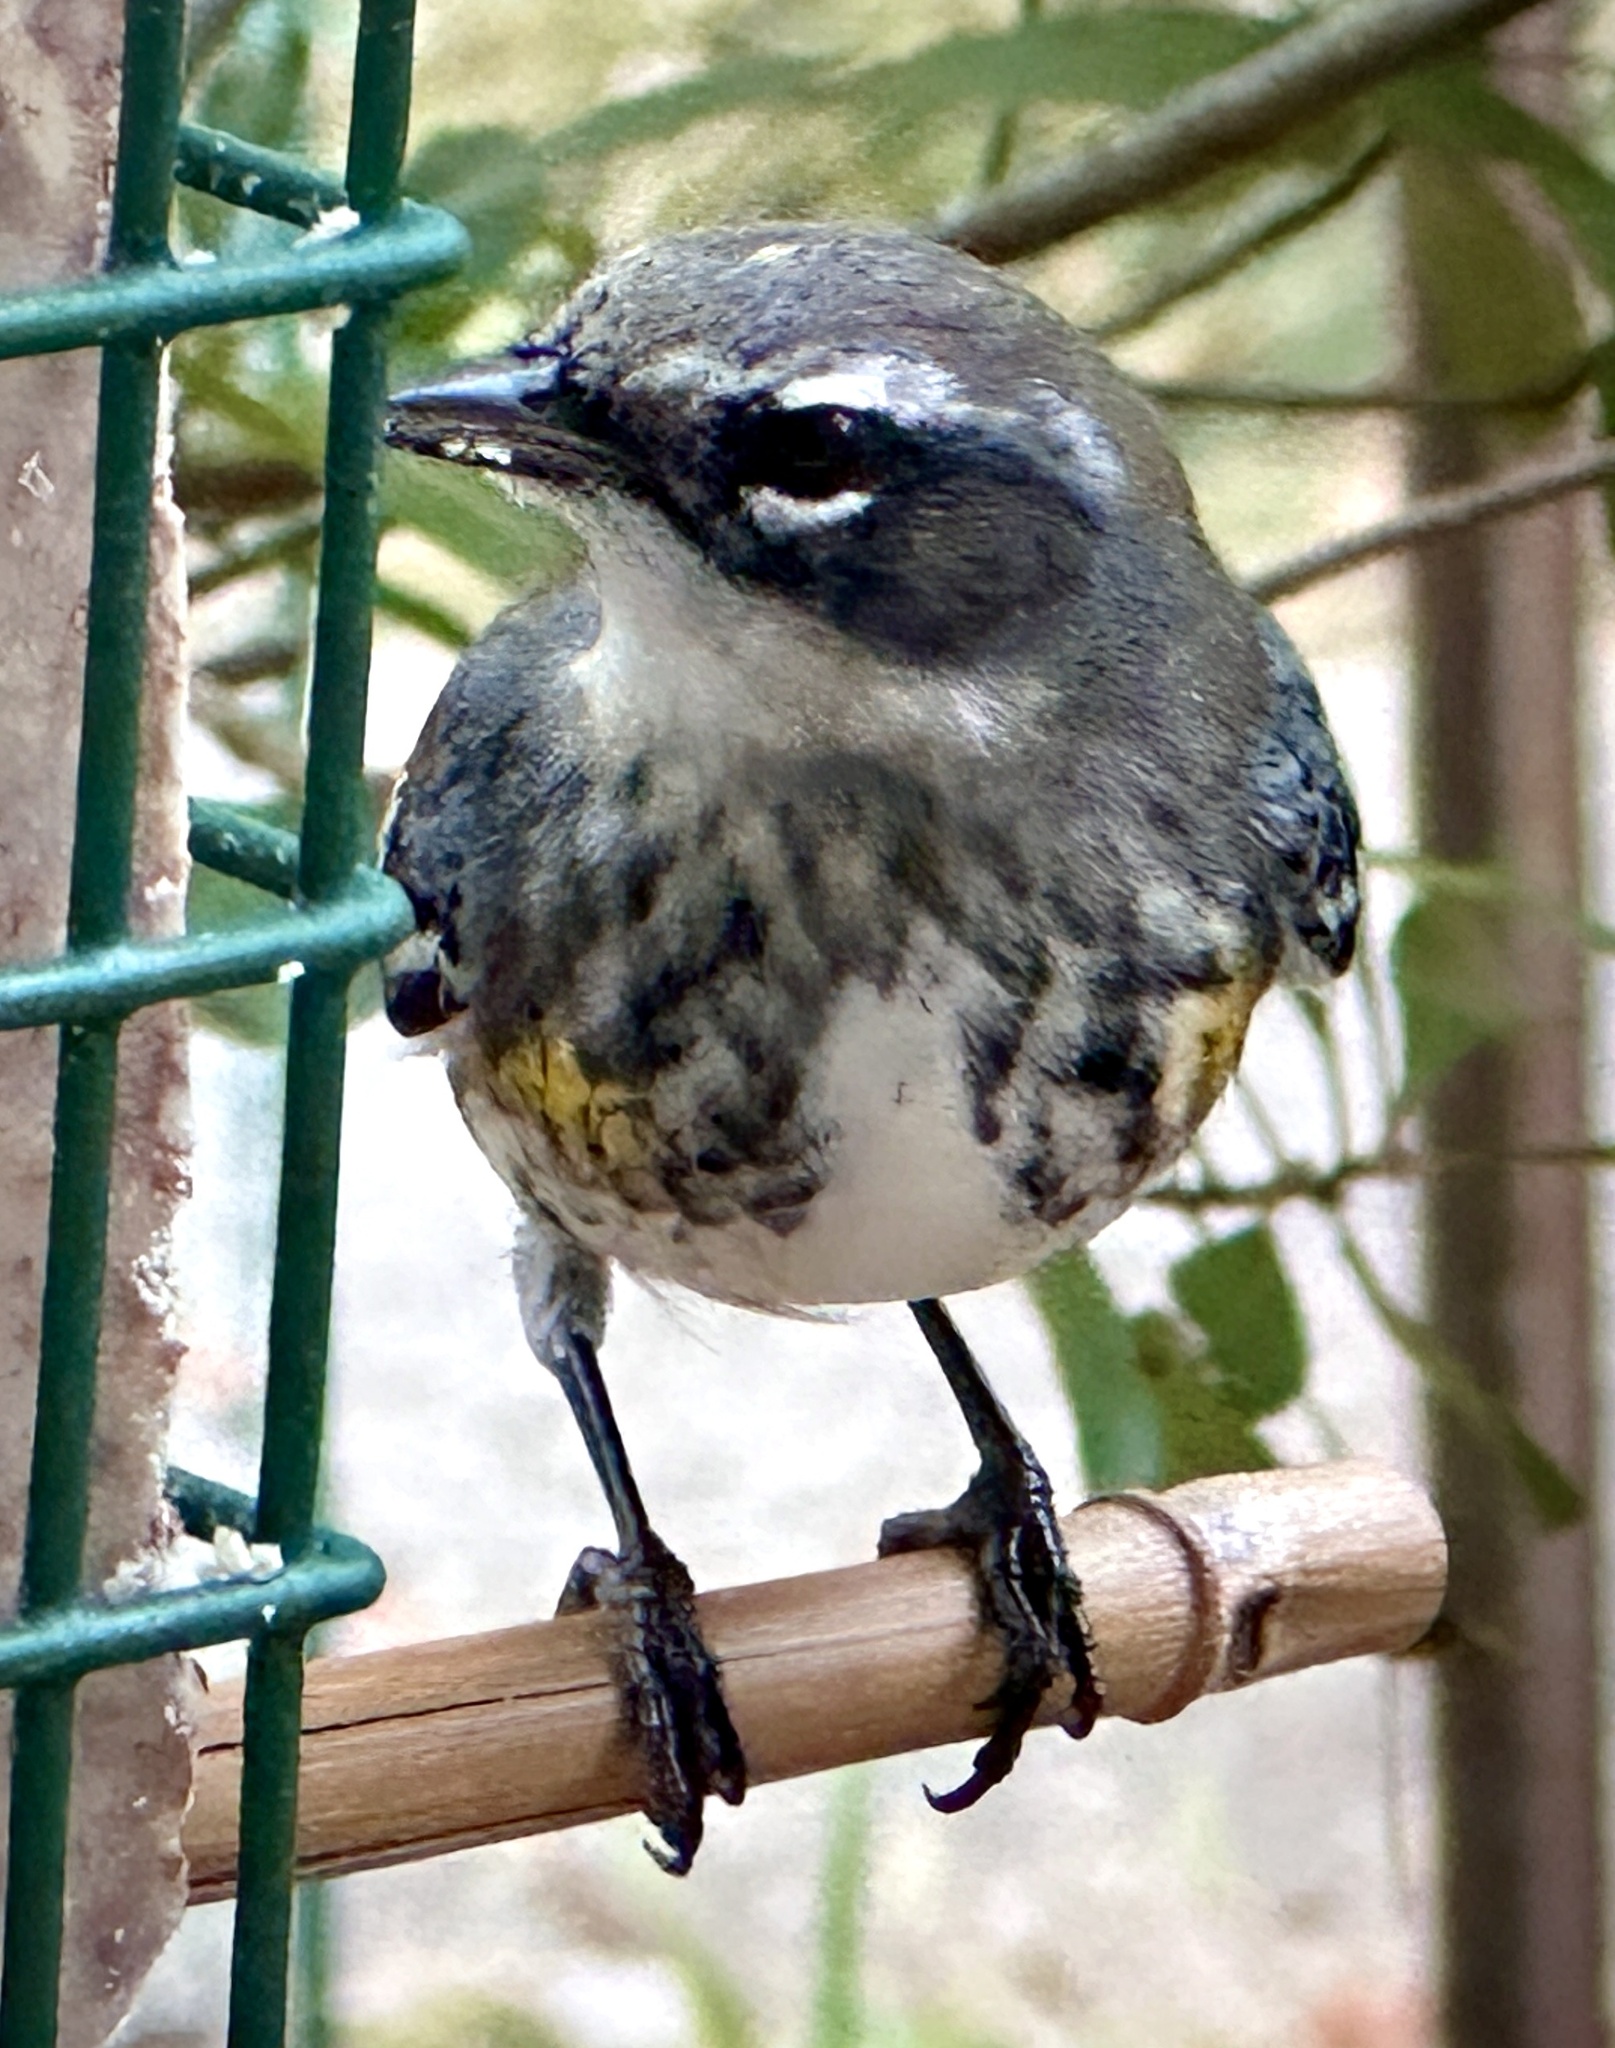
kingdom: Animalia
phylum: Chordata
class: Aves
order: Passeriformes
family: Parulidae
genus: Setophaga
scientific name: Setophaga coronata
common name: Myrtle warbler
